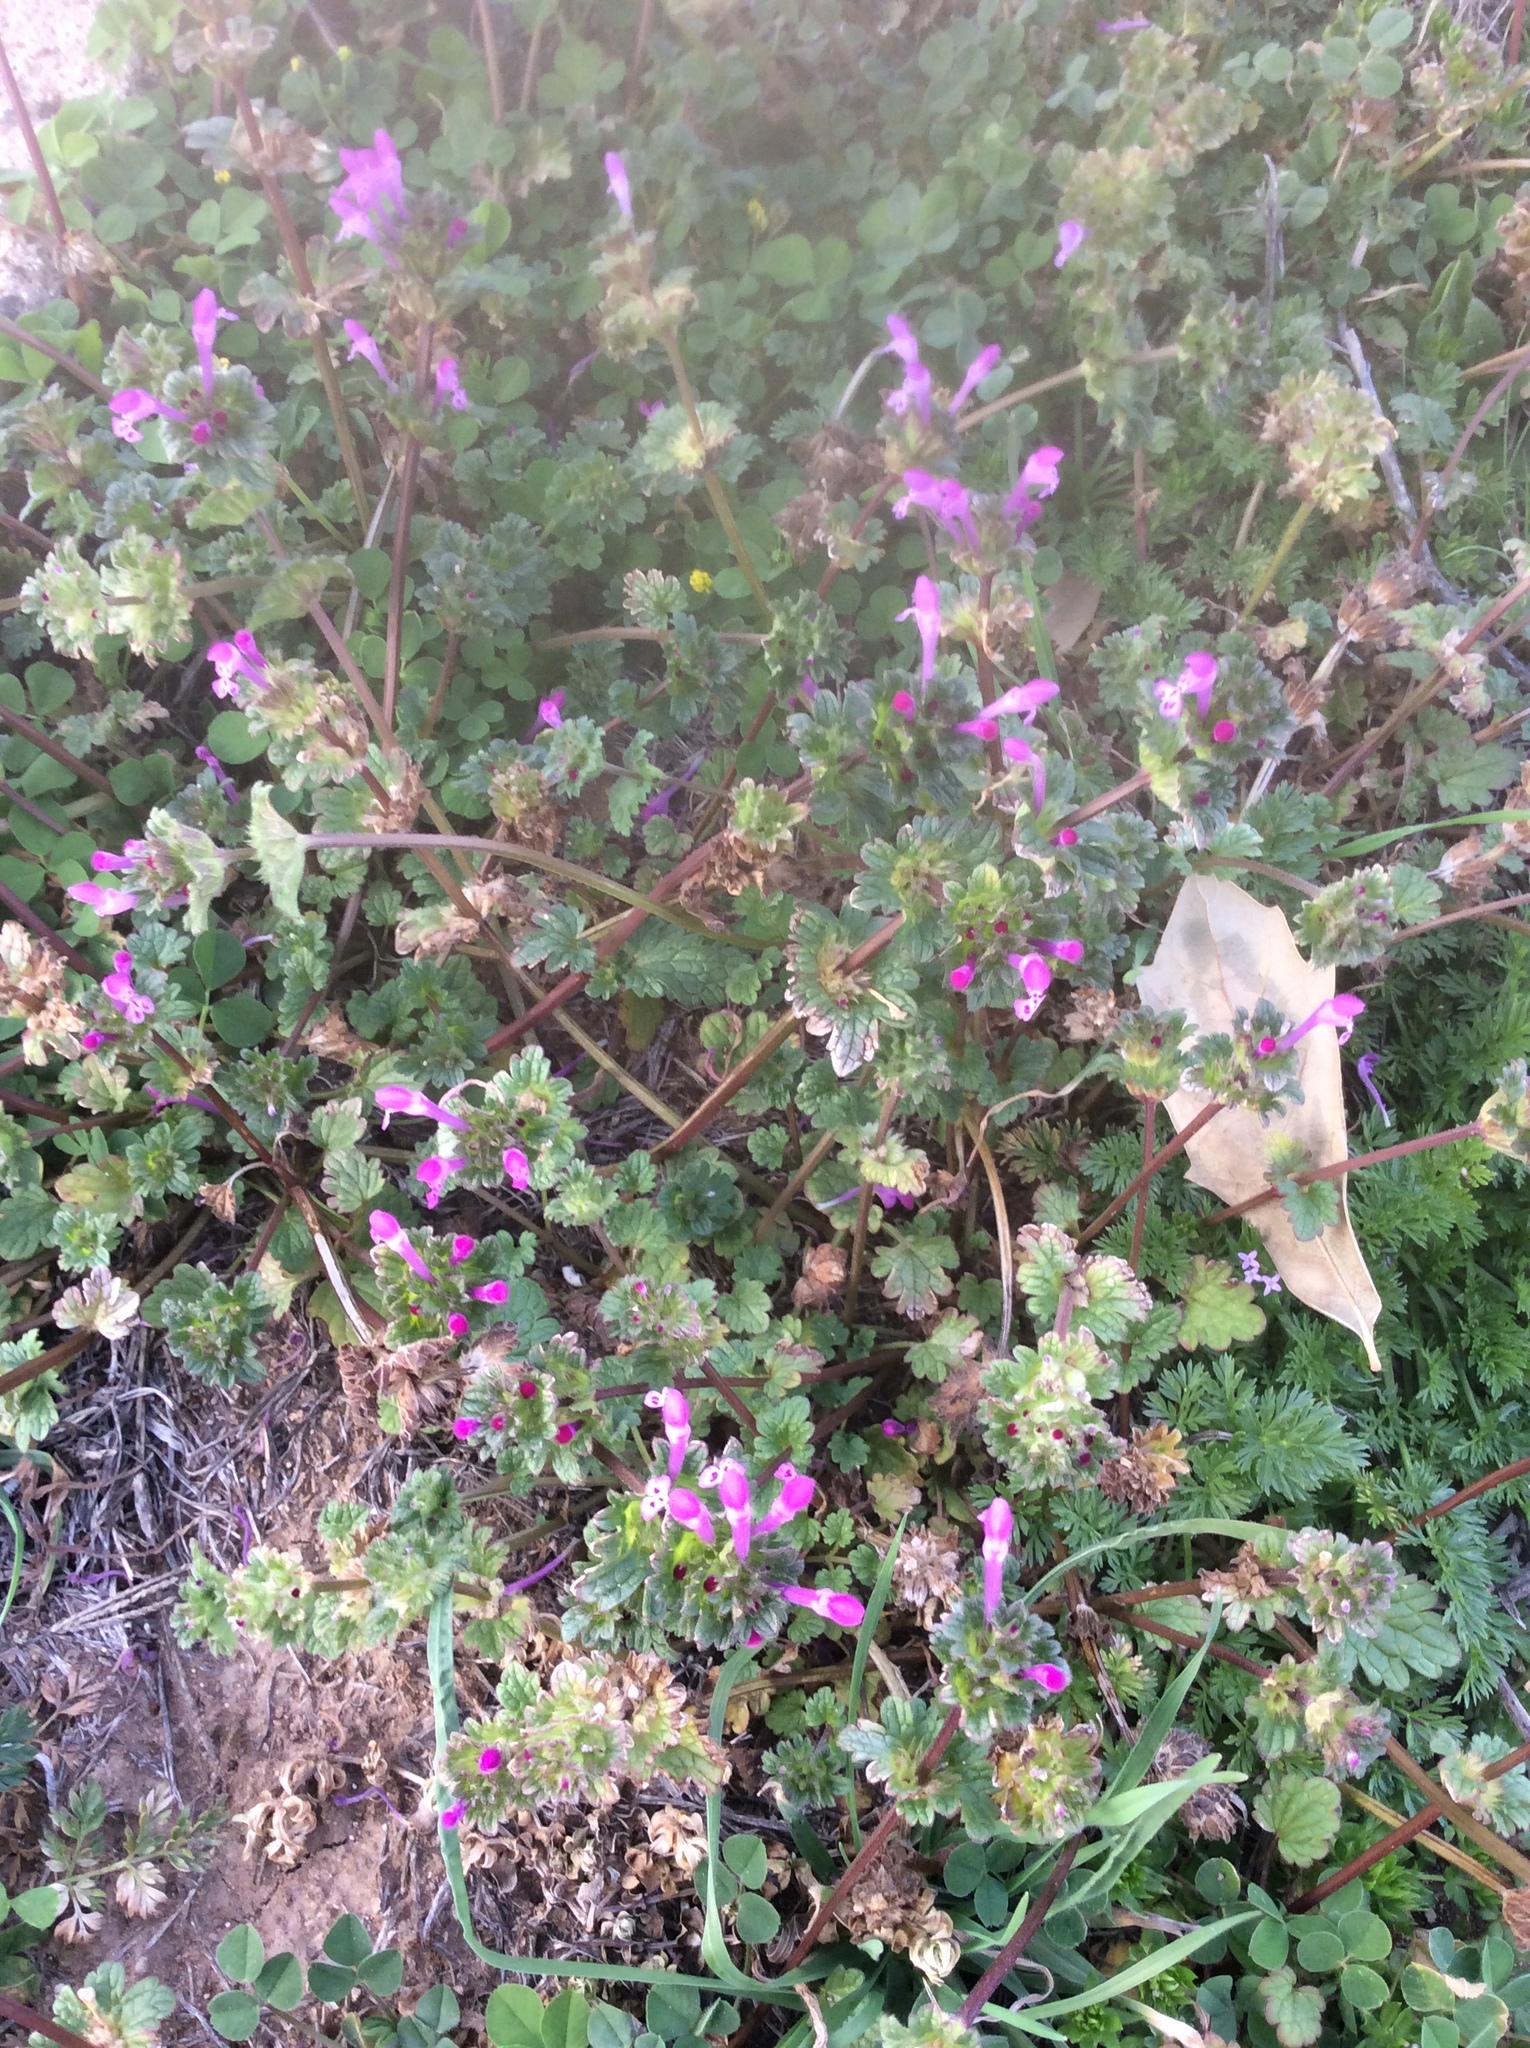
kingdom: Plantae
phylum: Tracheophyta
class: Magnoliopsida
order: Lamiales
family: Lamiaceae
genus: Lamium
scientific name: Lamium amplexicaule
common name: Henbit dead-nettle
